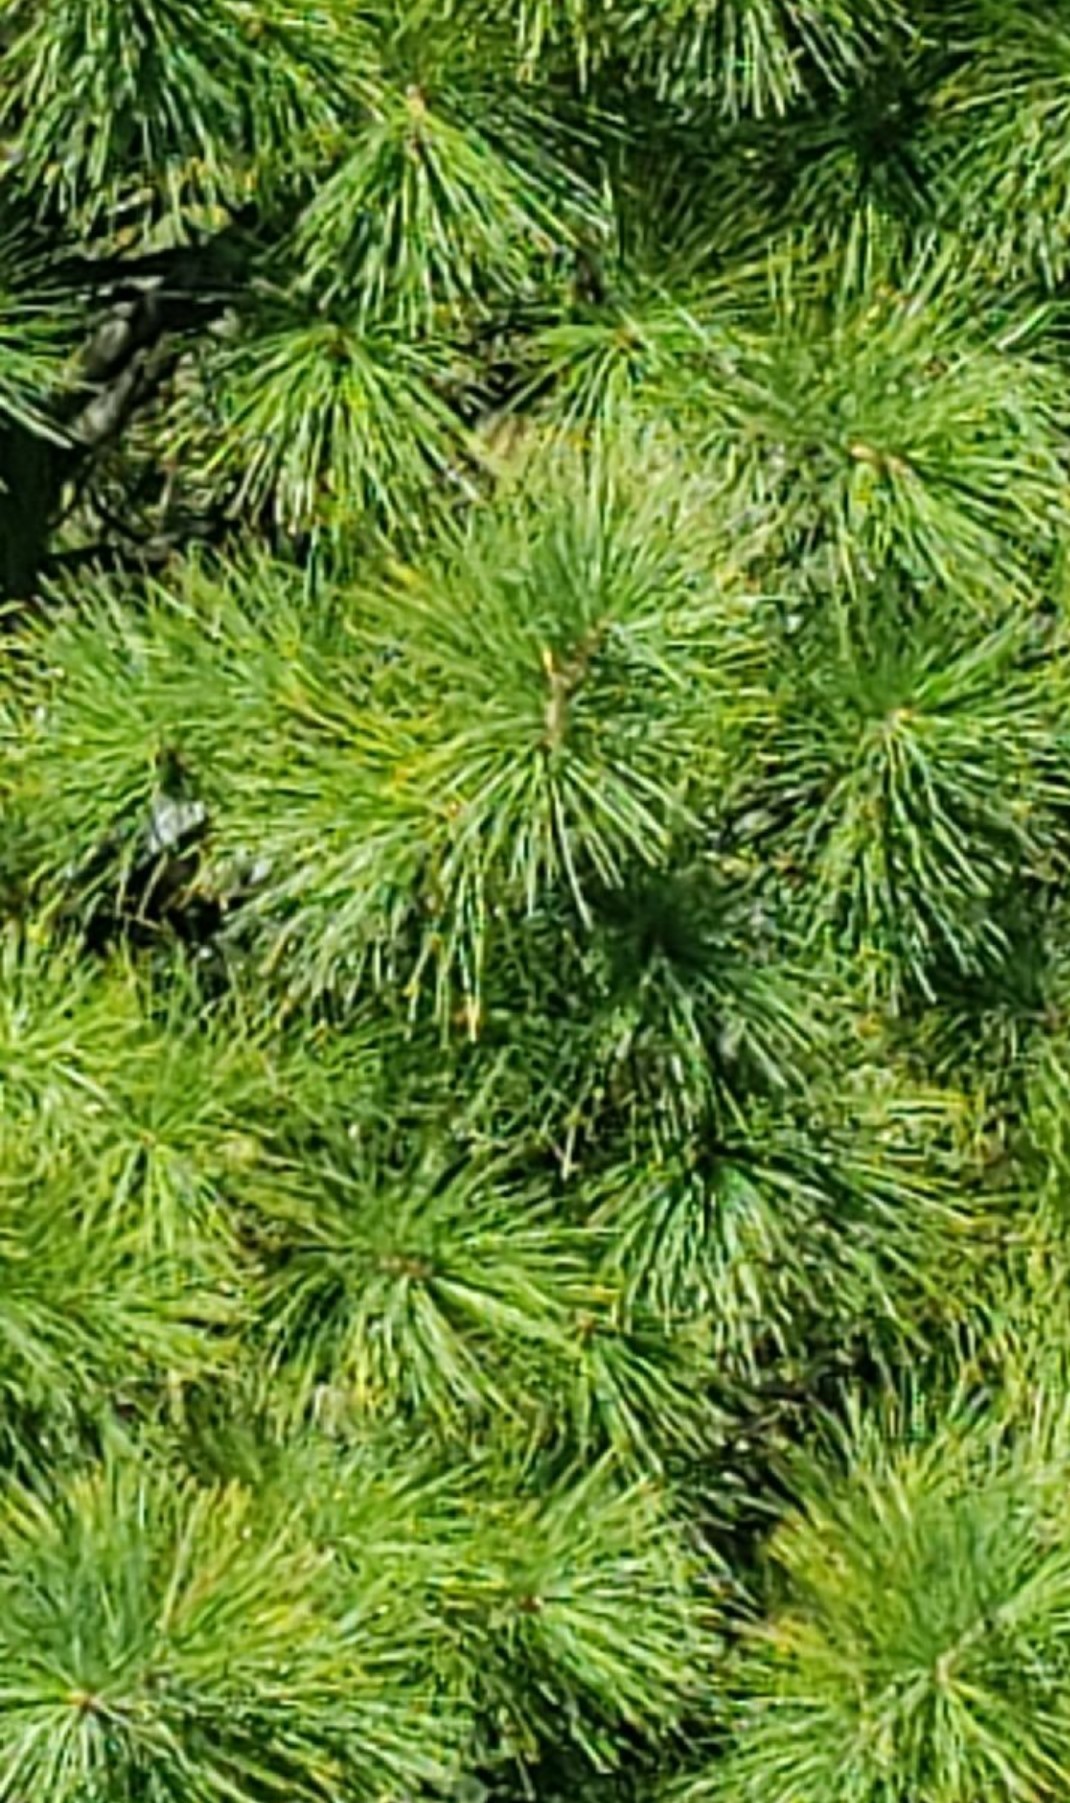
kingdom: Plantae
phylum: Tracheophyta
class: Pinopsida
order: Pinales
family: Pinaceae
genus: Pinus
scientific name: Pinus strobus
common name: Weymouth pine
